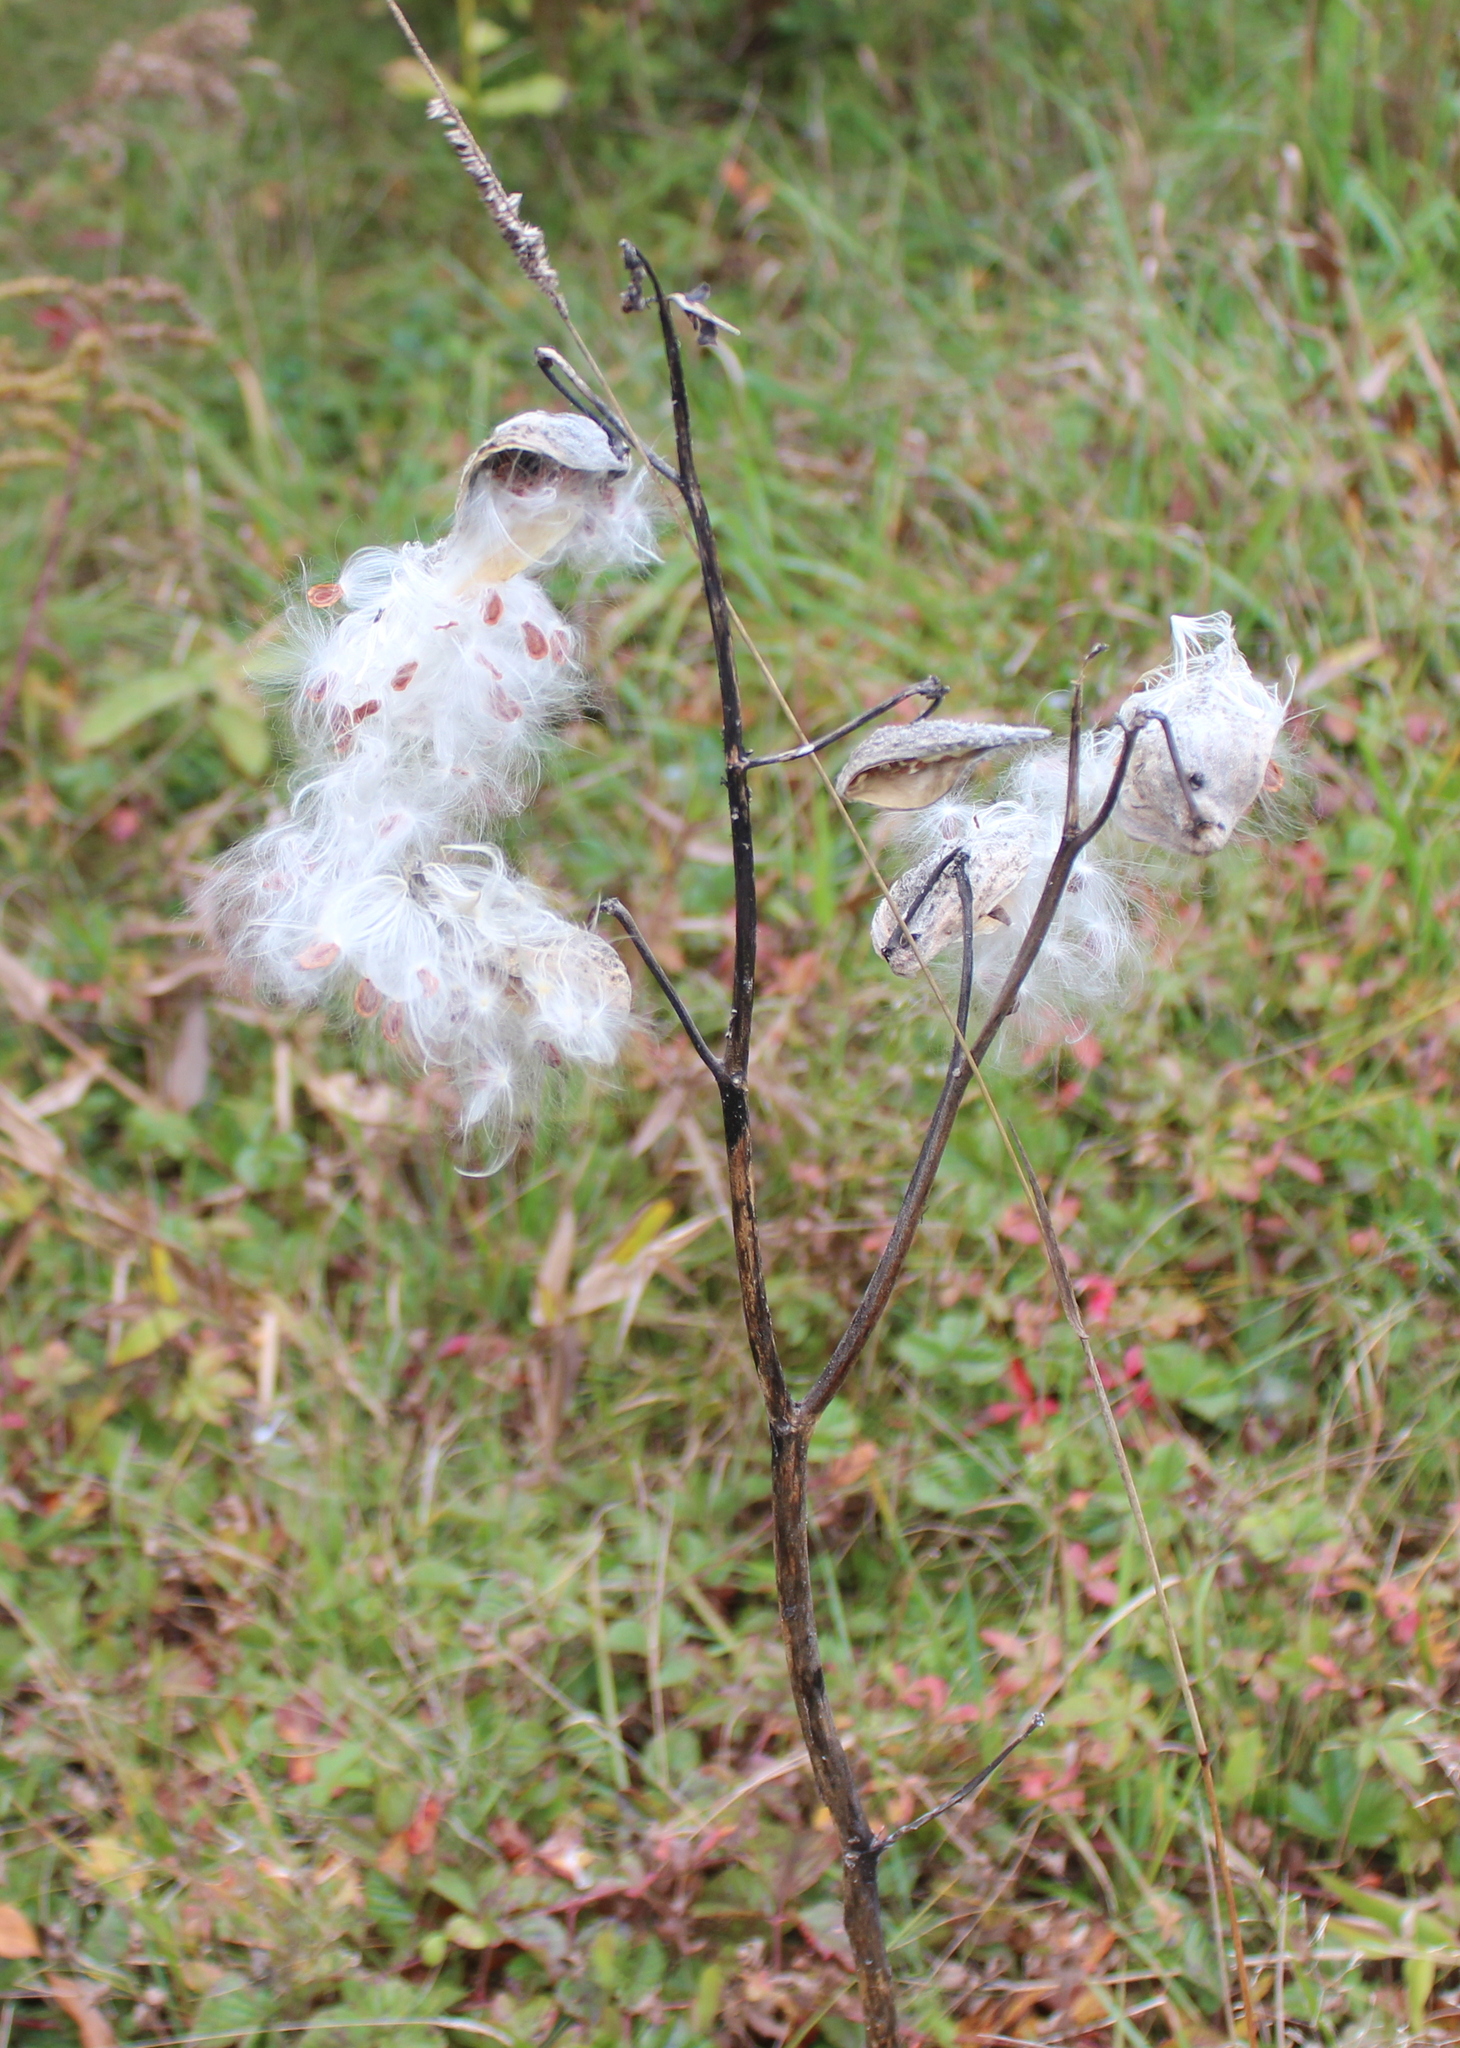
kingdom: Plantae
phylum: Tracheophyta
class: Magnoliopsida
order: Gentianales
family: Apocynaceae
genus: Asclepias
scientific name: Asclepias syriaca
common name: Common milkweed
